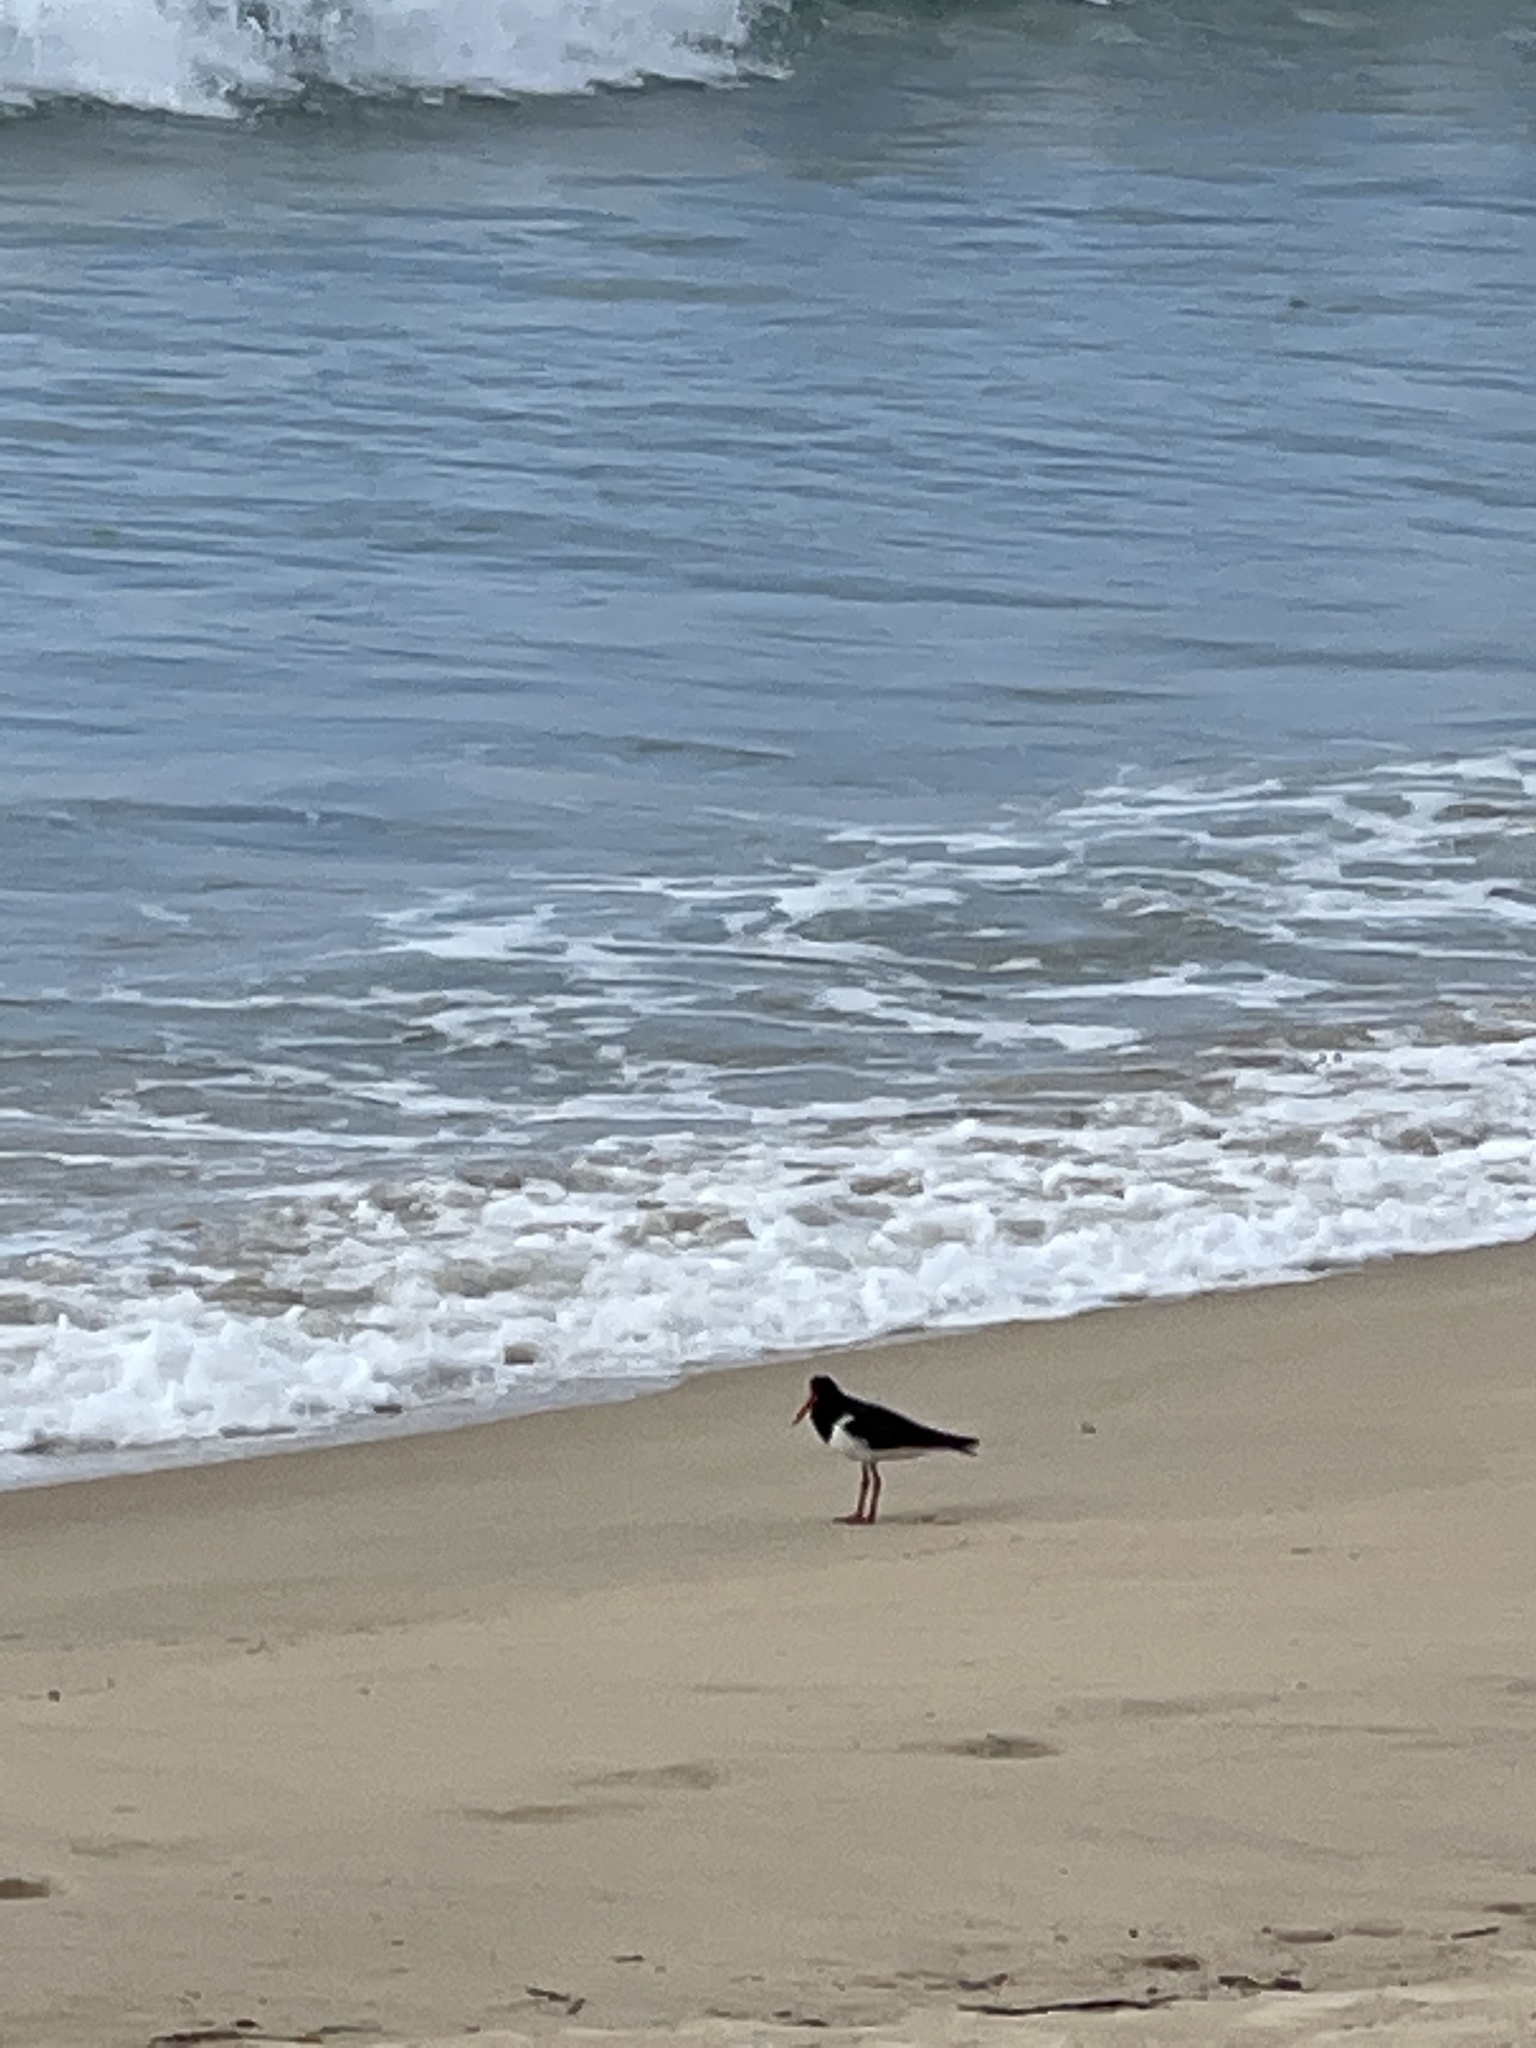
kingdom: Animalia
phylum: Chordata
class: Aves
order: Charadriiformes
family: Haematopodidae
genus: Haematopus
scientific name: Haematopus longirostris
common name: Pied oystercatcher
